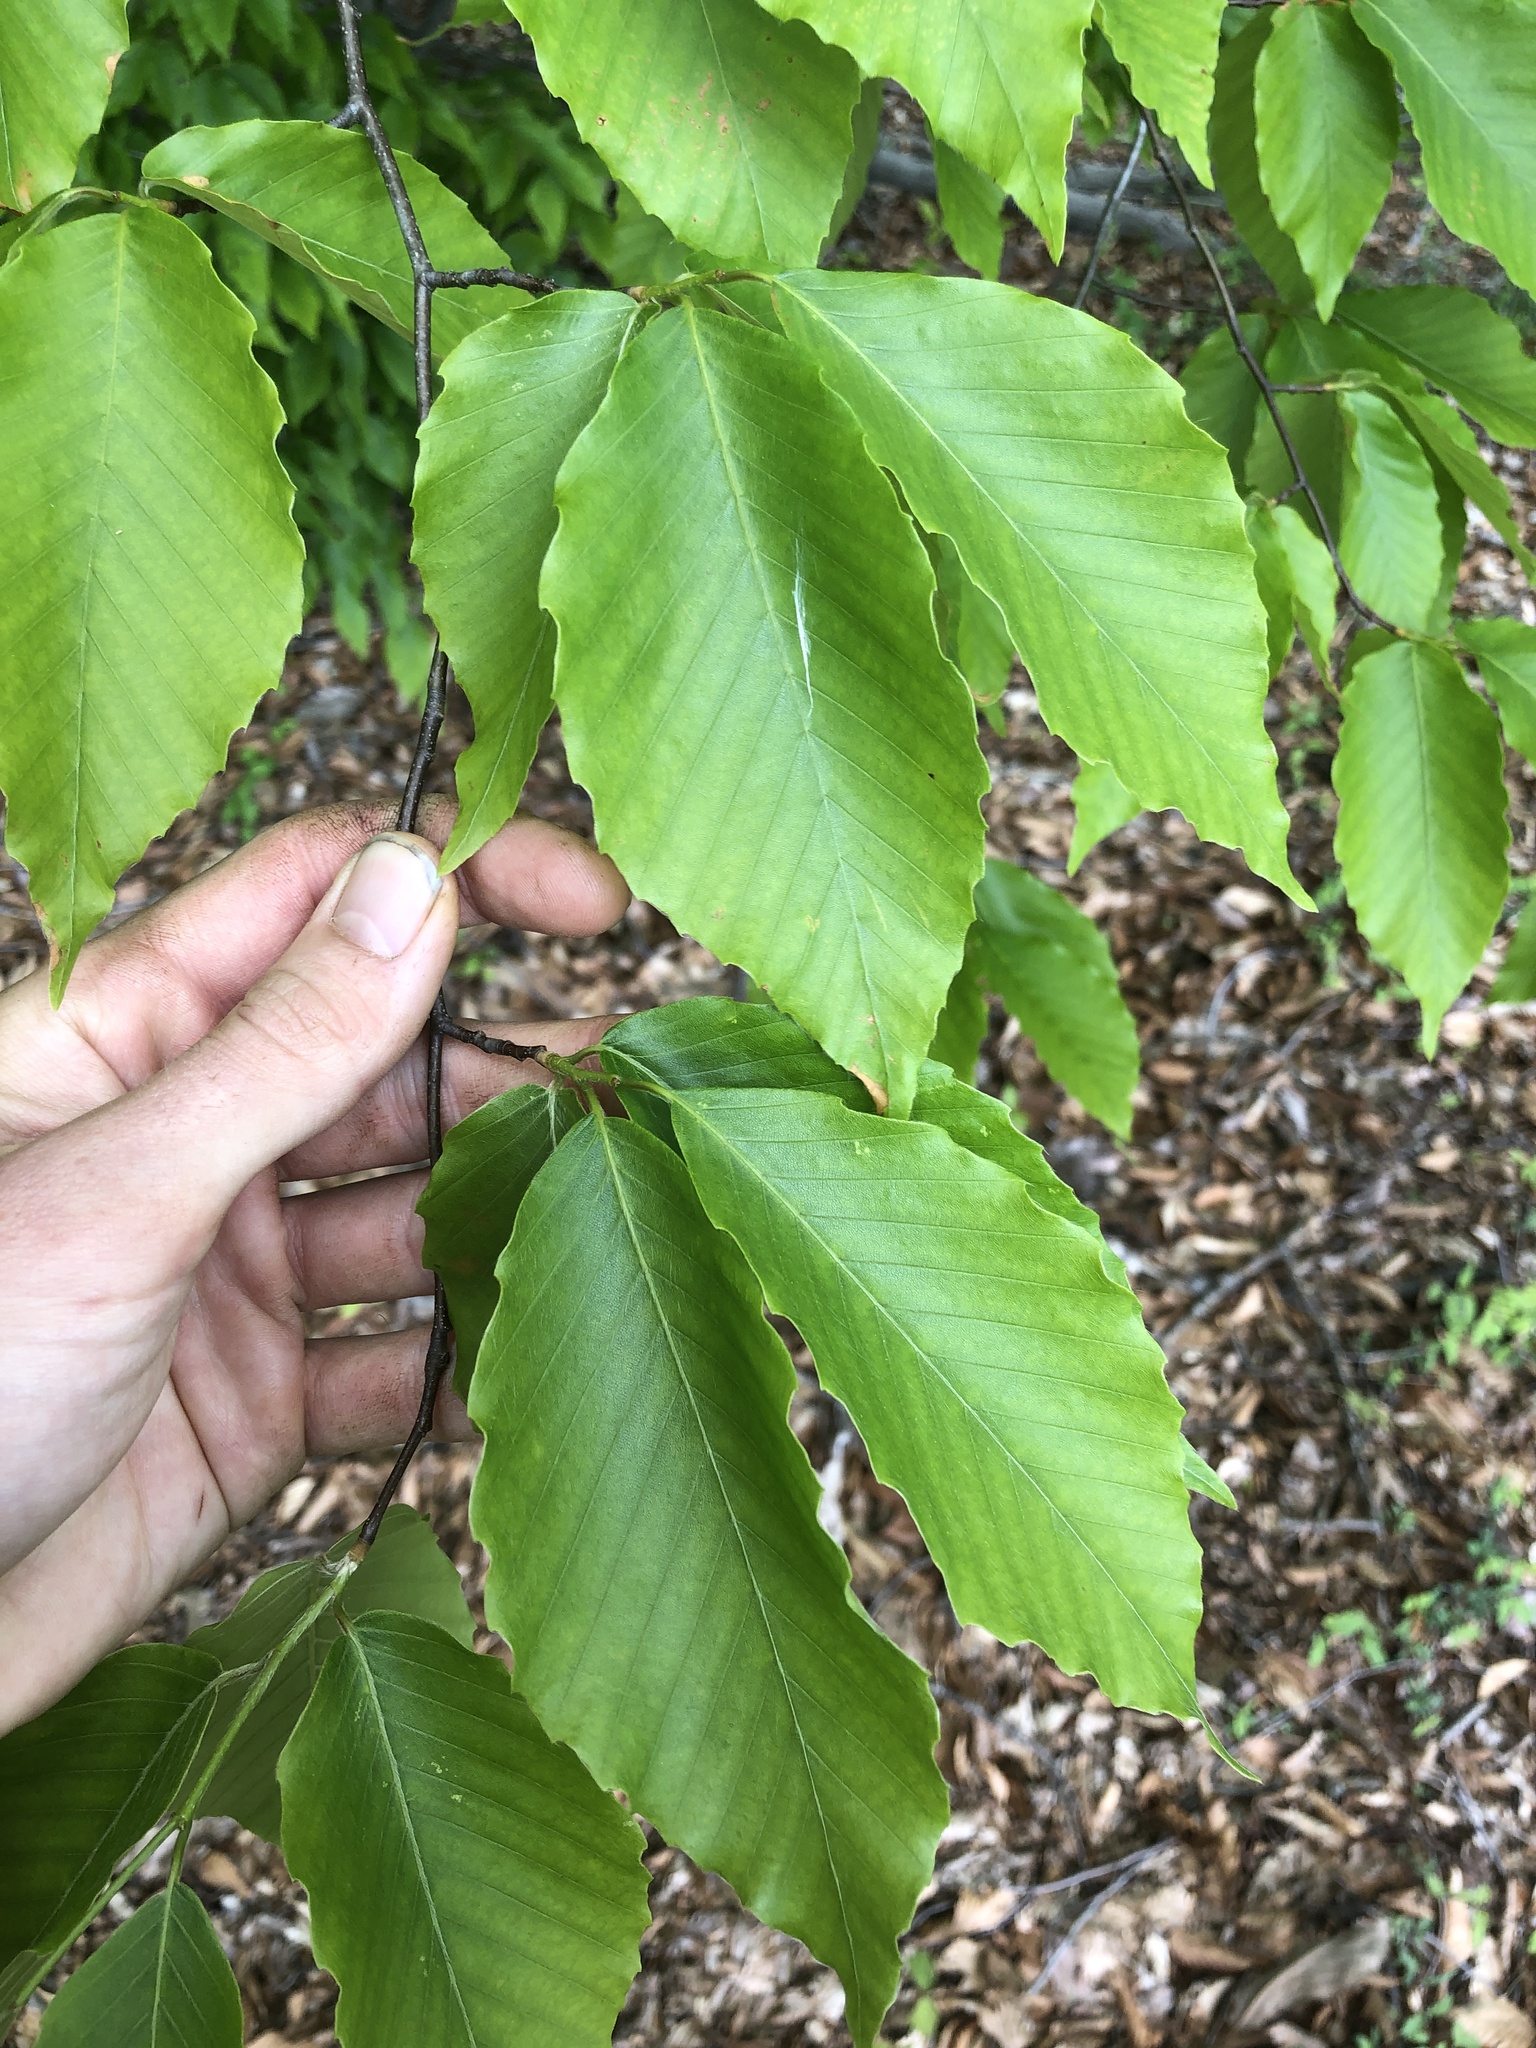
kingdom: Plantae
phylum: Tracheophyta
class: Magnoliopsida
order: Fagales
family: Fagaceae
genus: Fagus
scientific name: Fagus grandifolia
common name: American beech
